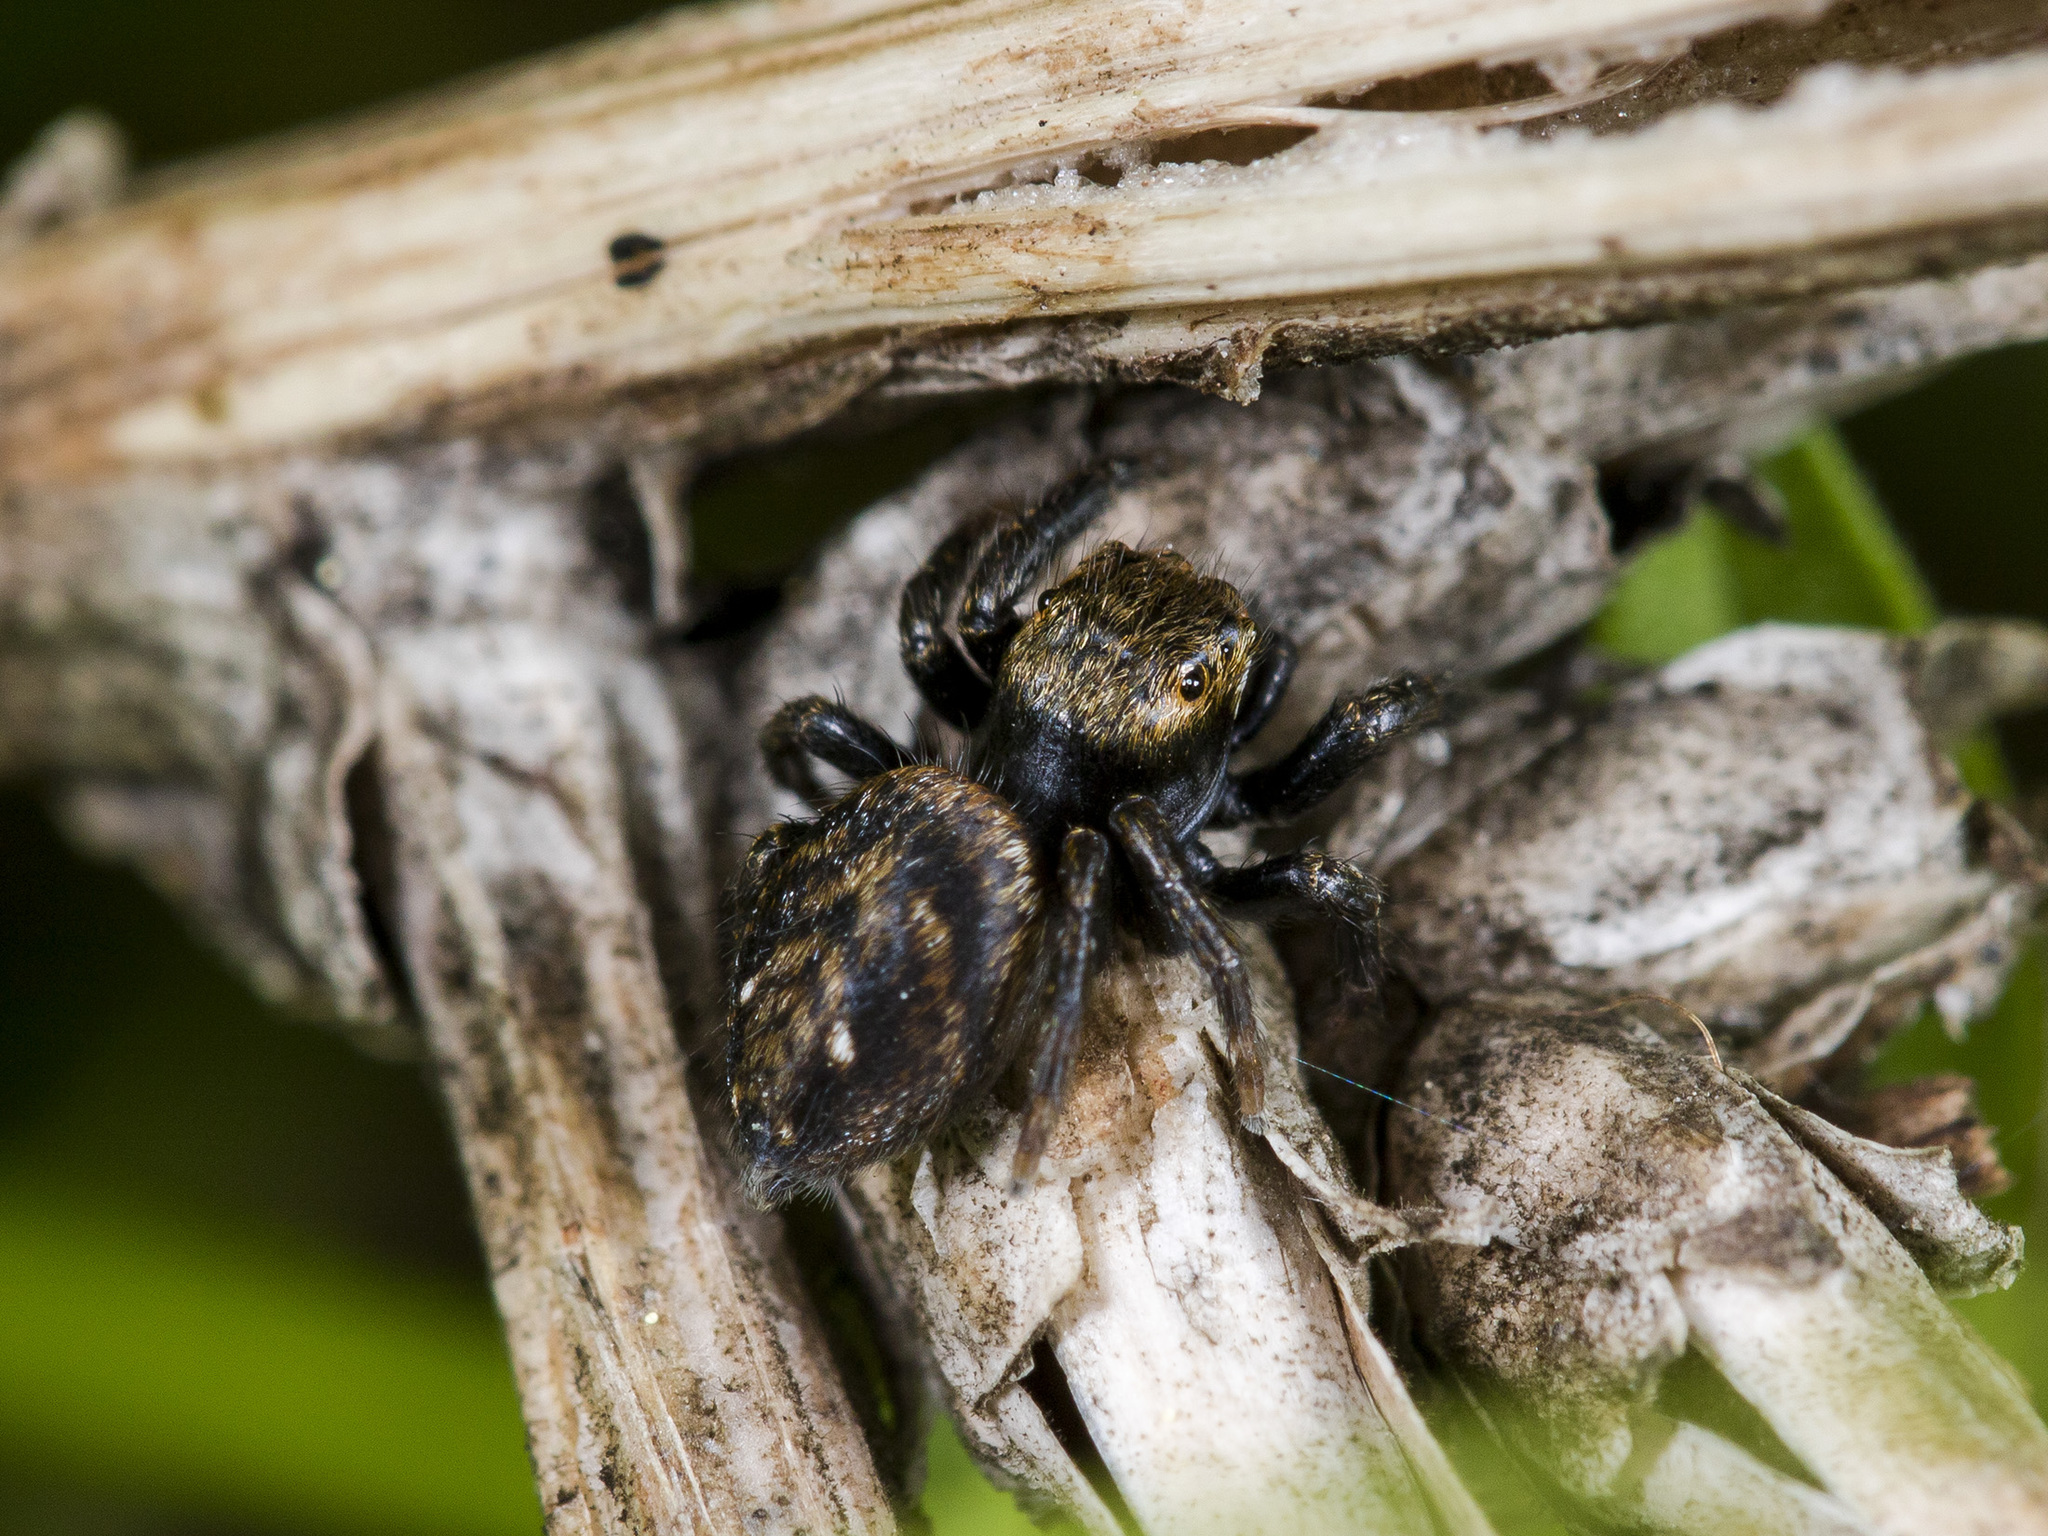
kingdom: Animalia
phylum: Arthropoda
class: Arachnida
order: Araneae
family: Salticidae
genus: Evarcha
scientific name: Evarcha michailovi
